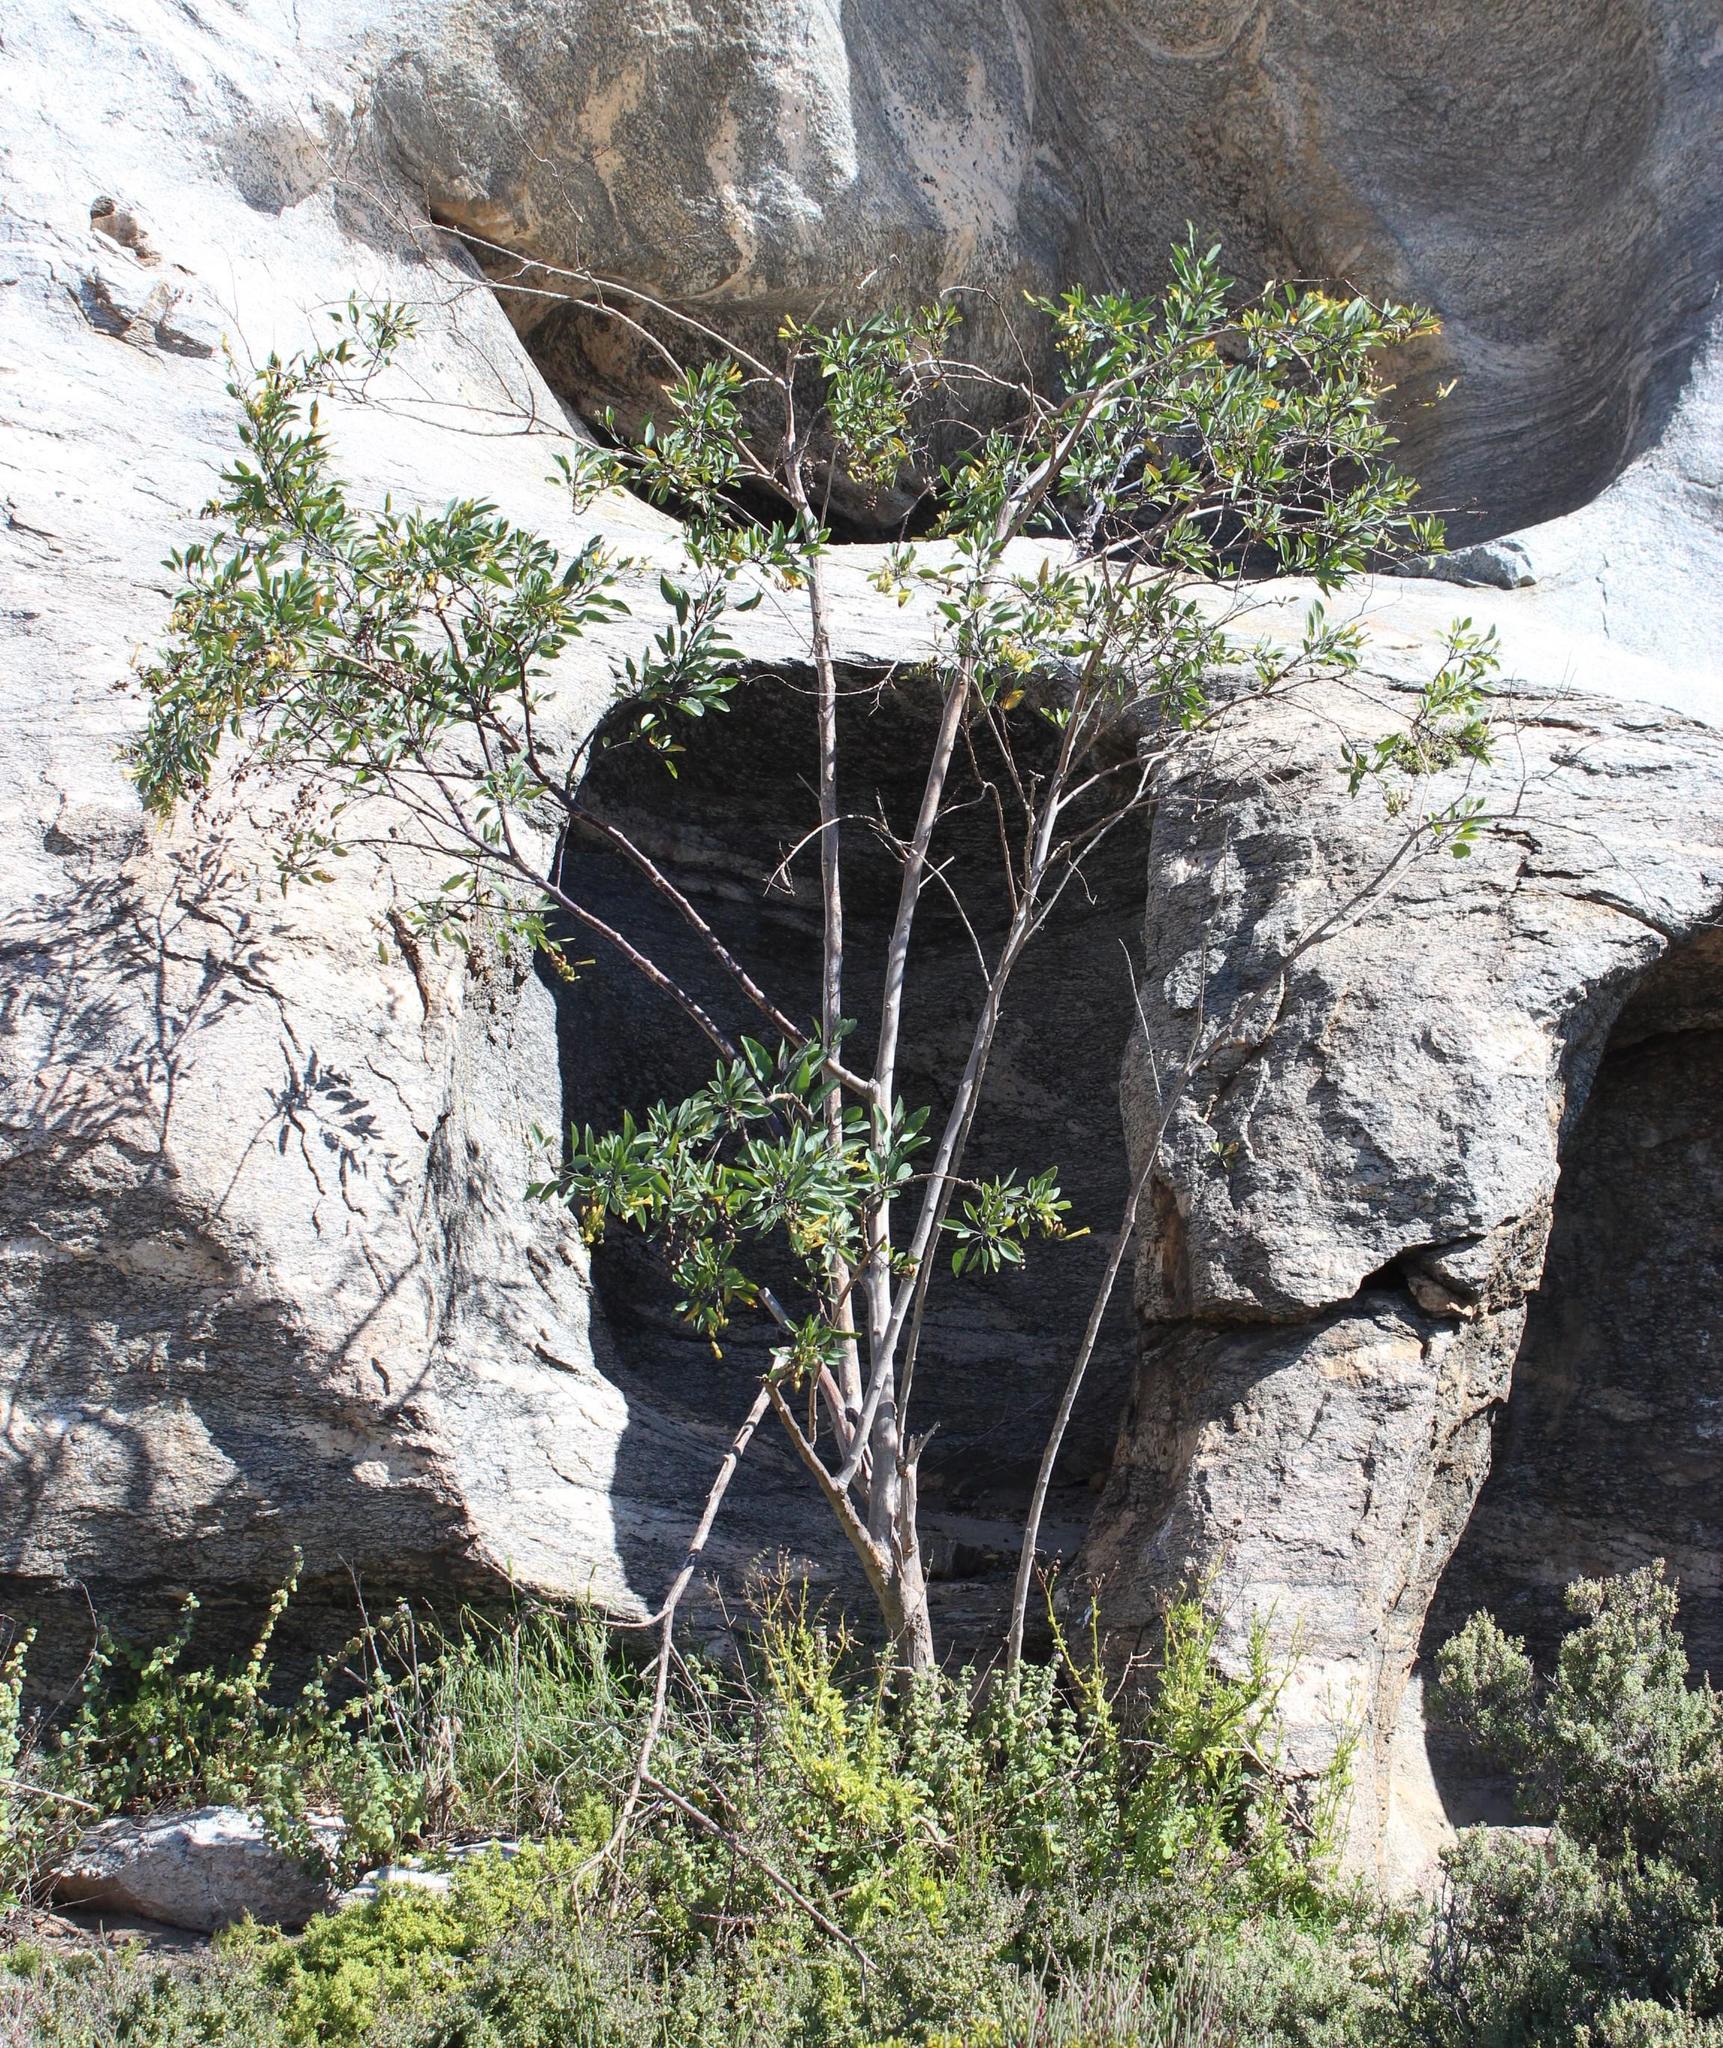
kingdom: Plantae
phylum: Tracheophyta
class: Magnoliopsida
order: Solanales
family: Solanaceae
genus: Nicotiana
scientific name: Nicotiana glauca
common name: Tree tobacco
